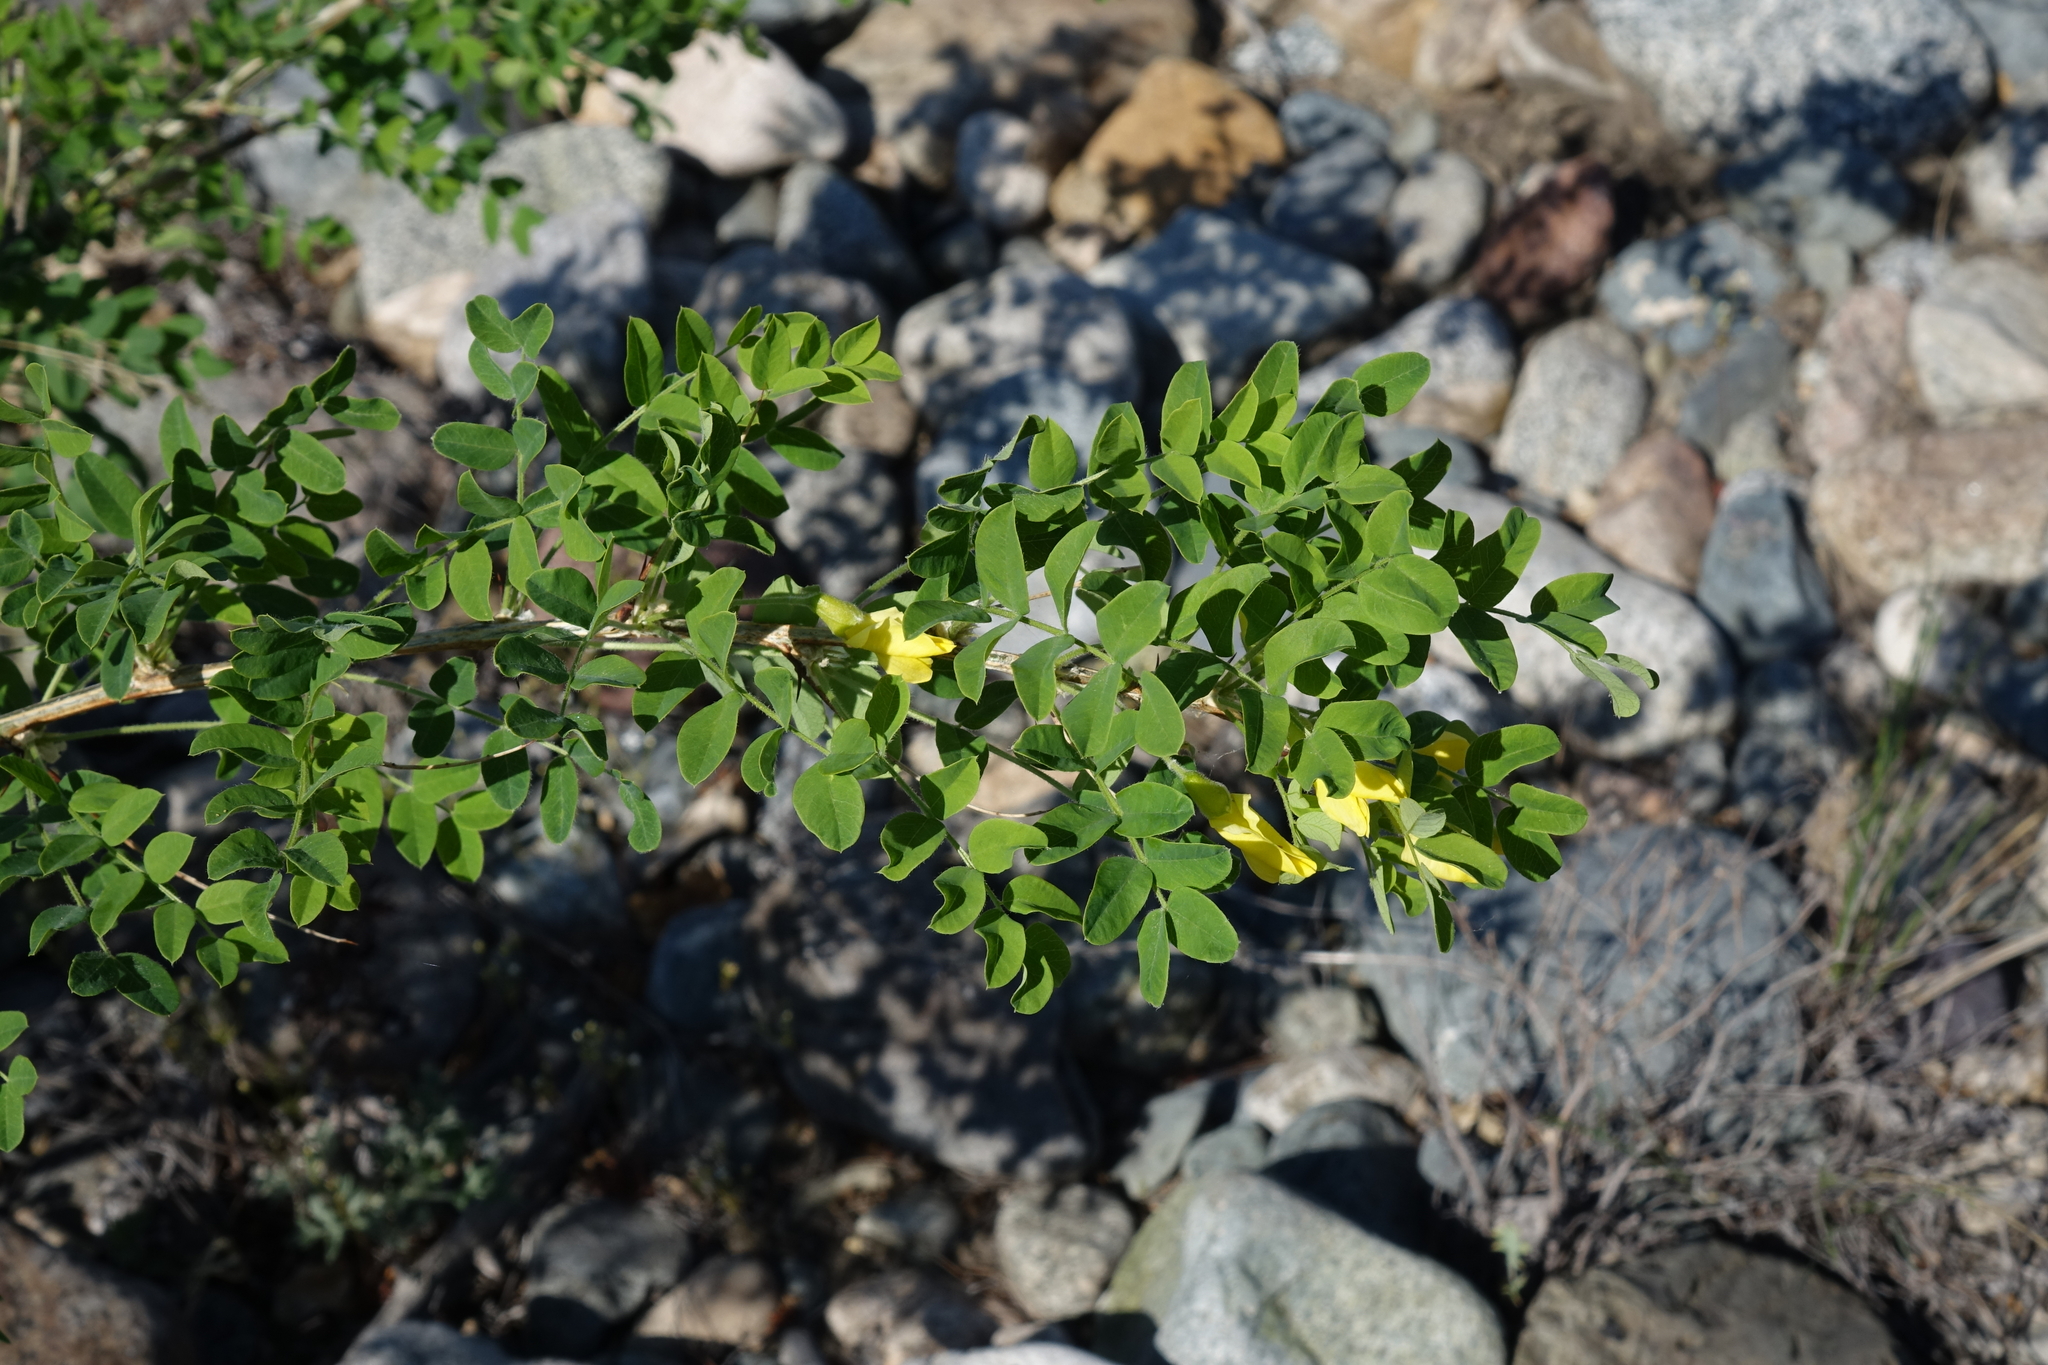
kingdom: Plantae
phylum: Tracheophyta
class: Magnoliopsida
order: Fabales
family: Fabaceae
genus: Caragana
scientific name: Caragana arborescens
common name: Siberian peashrub
